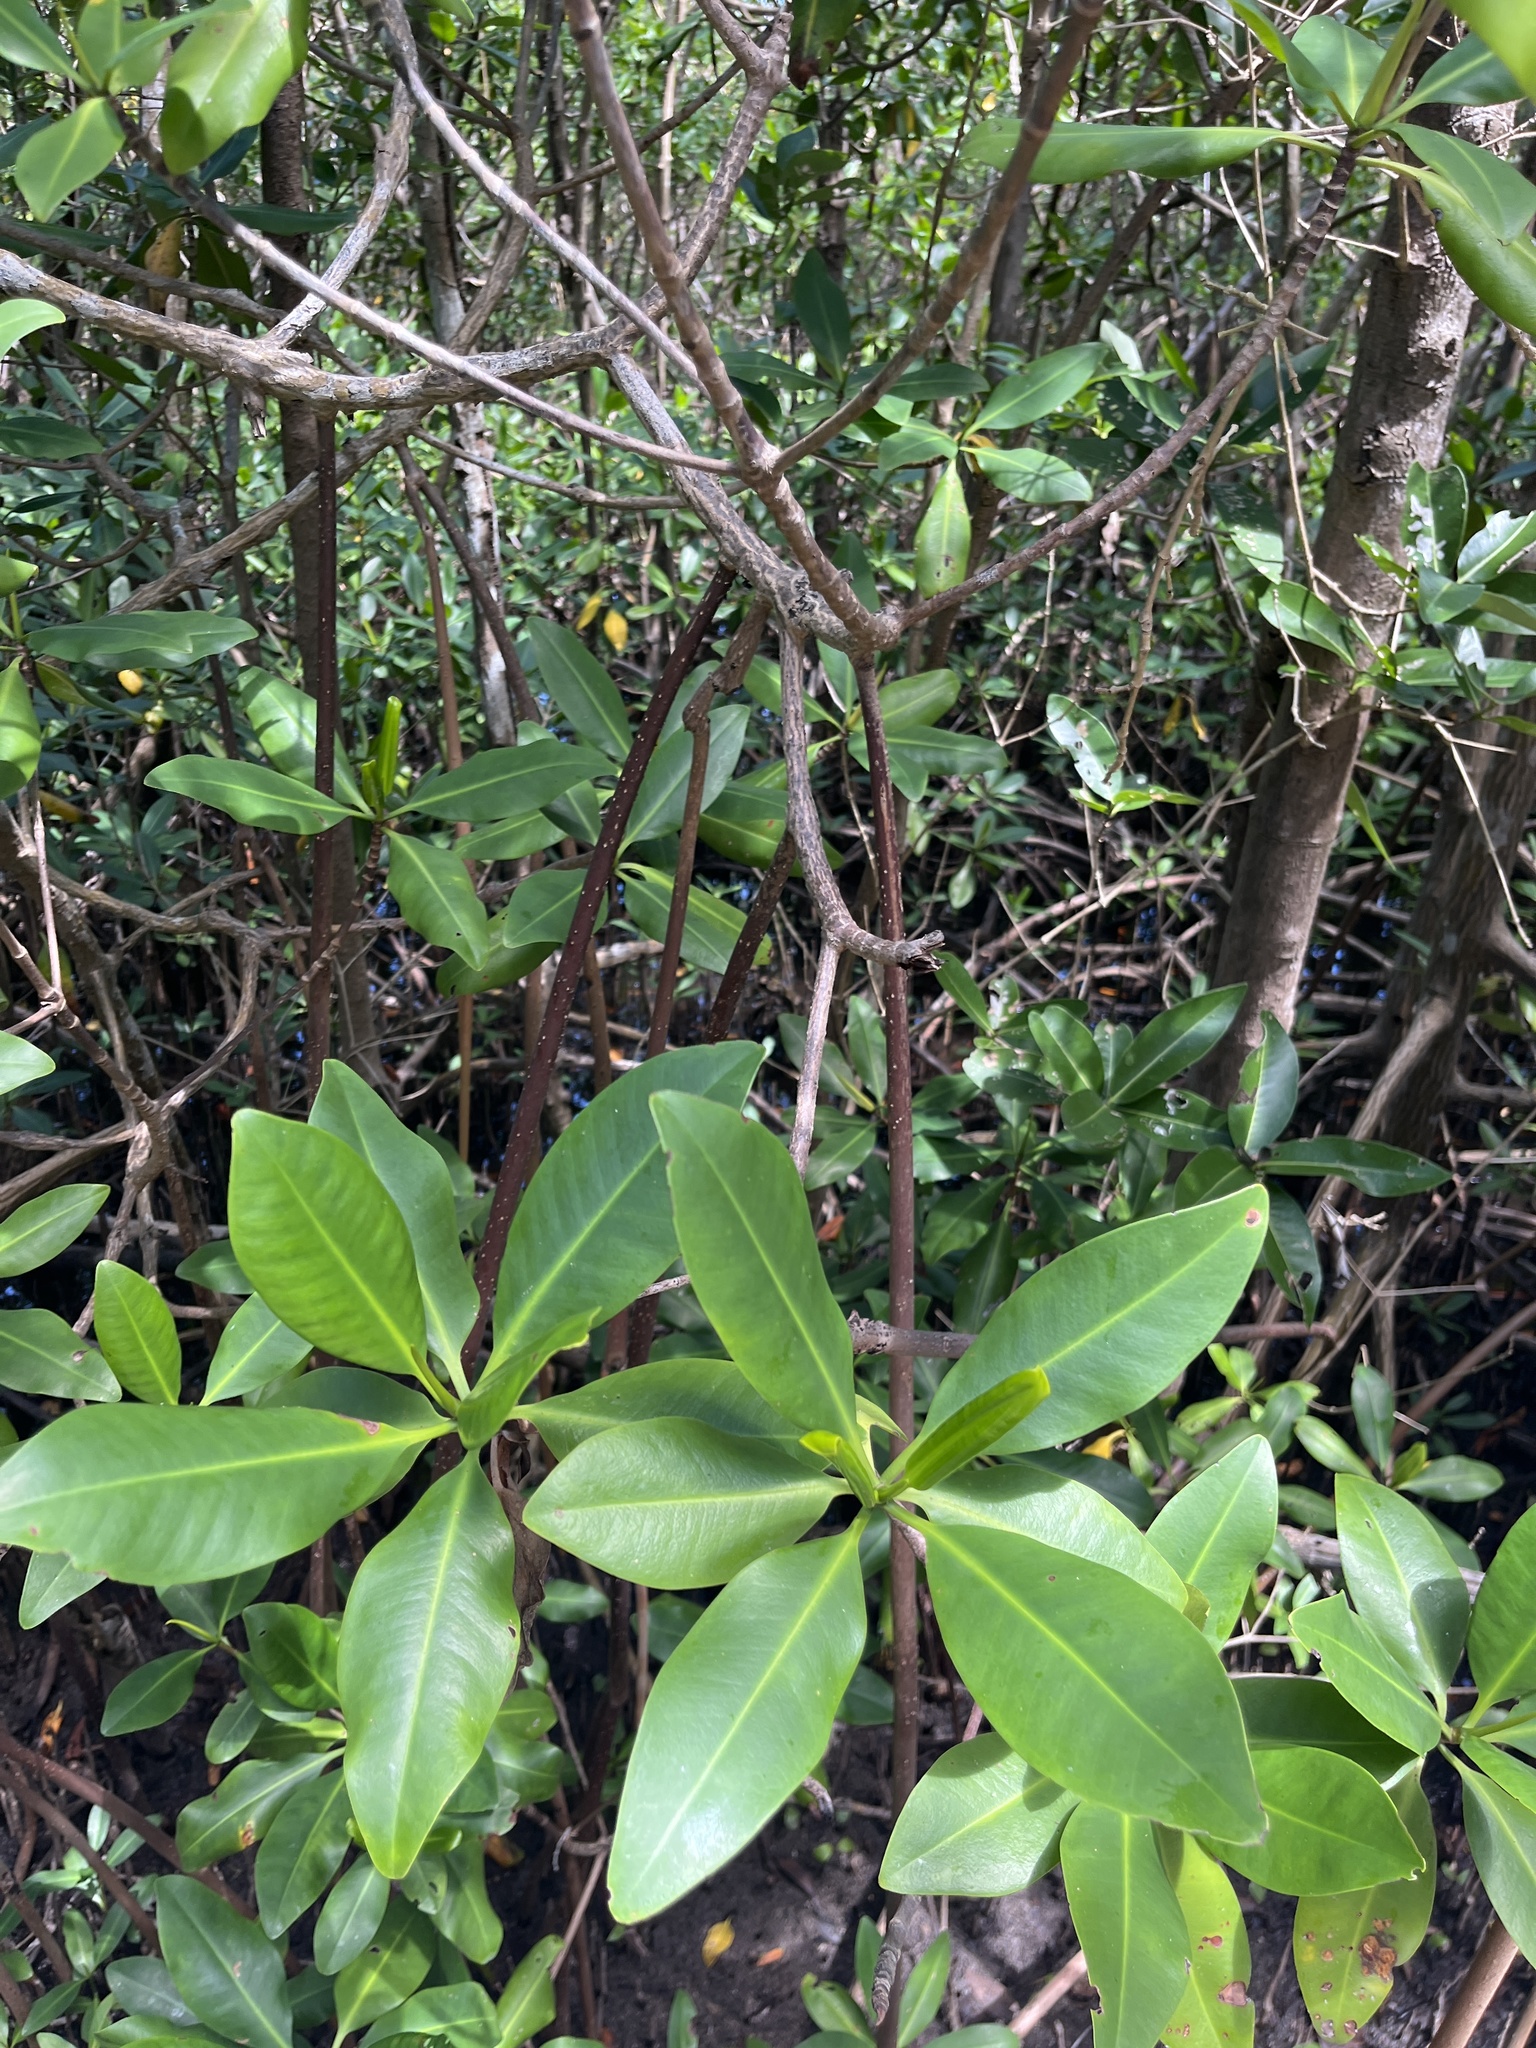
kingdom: Plantae
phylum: Tracheophyta
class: Magnoliopsida
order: Malpighiales
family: Rhizophoraceae
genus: Rhizophora
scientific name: Rhizophora mangle
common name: Red mangrove
